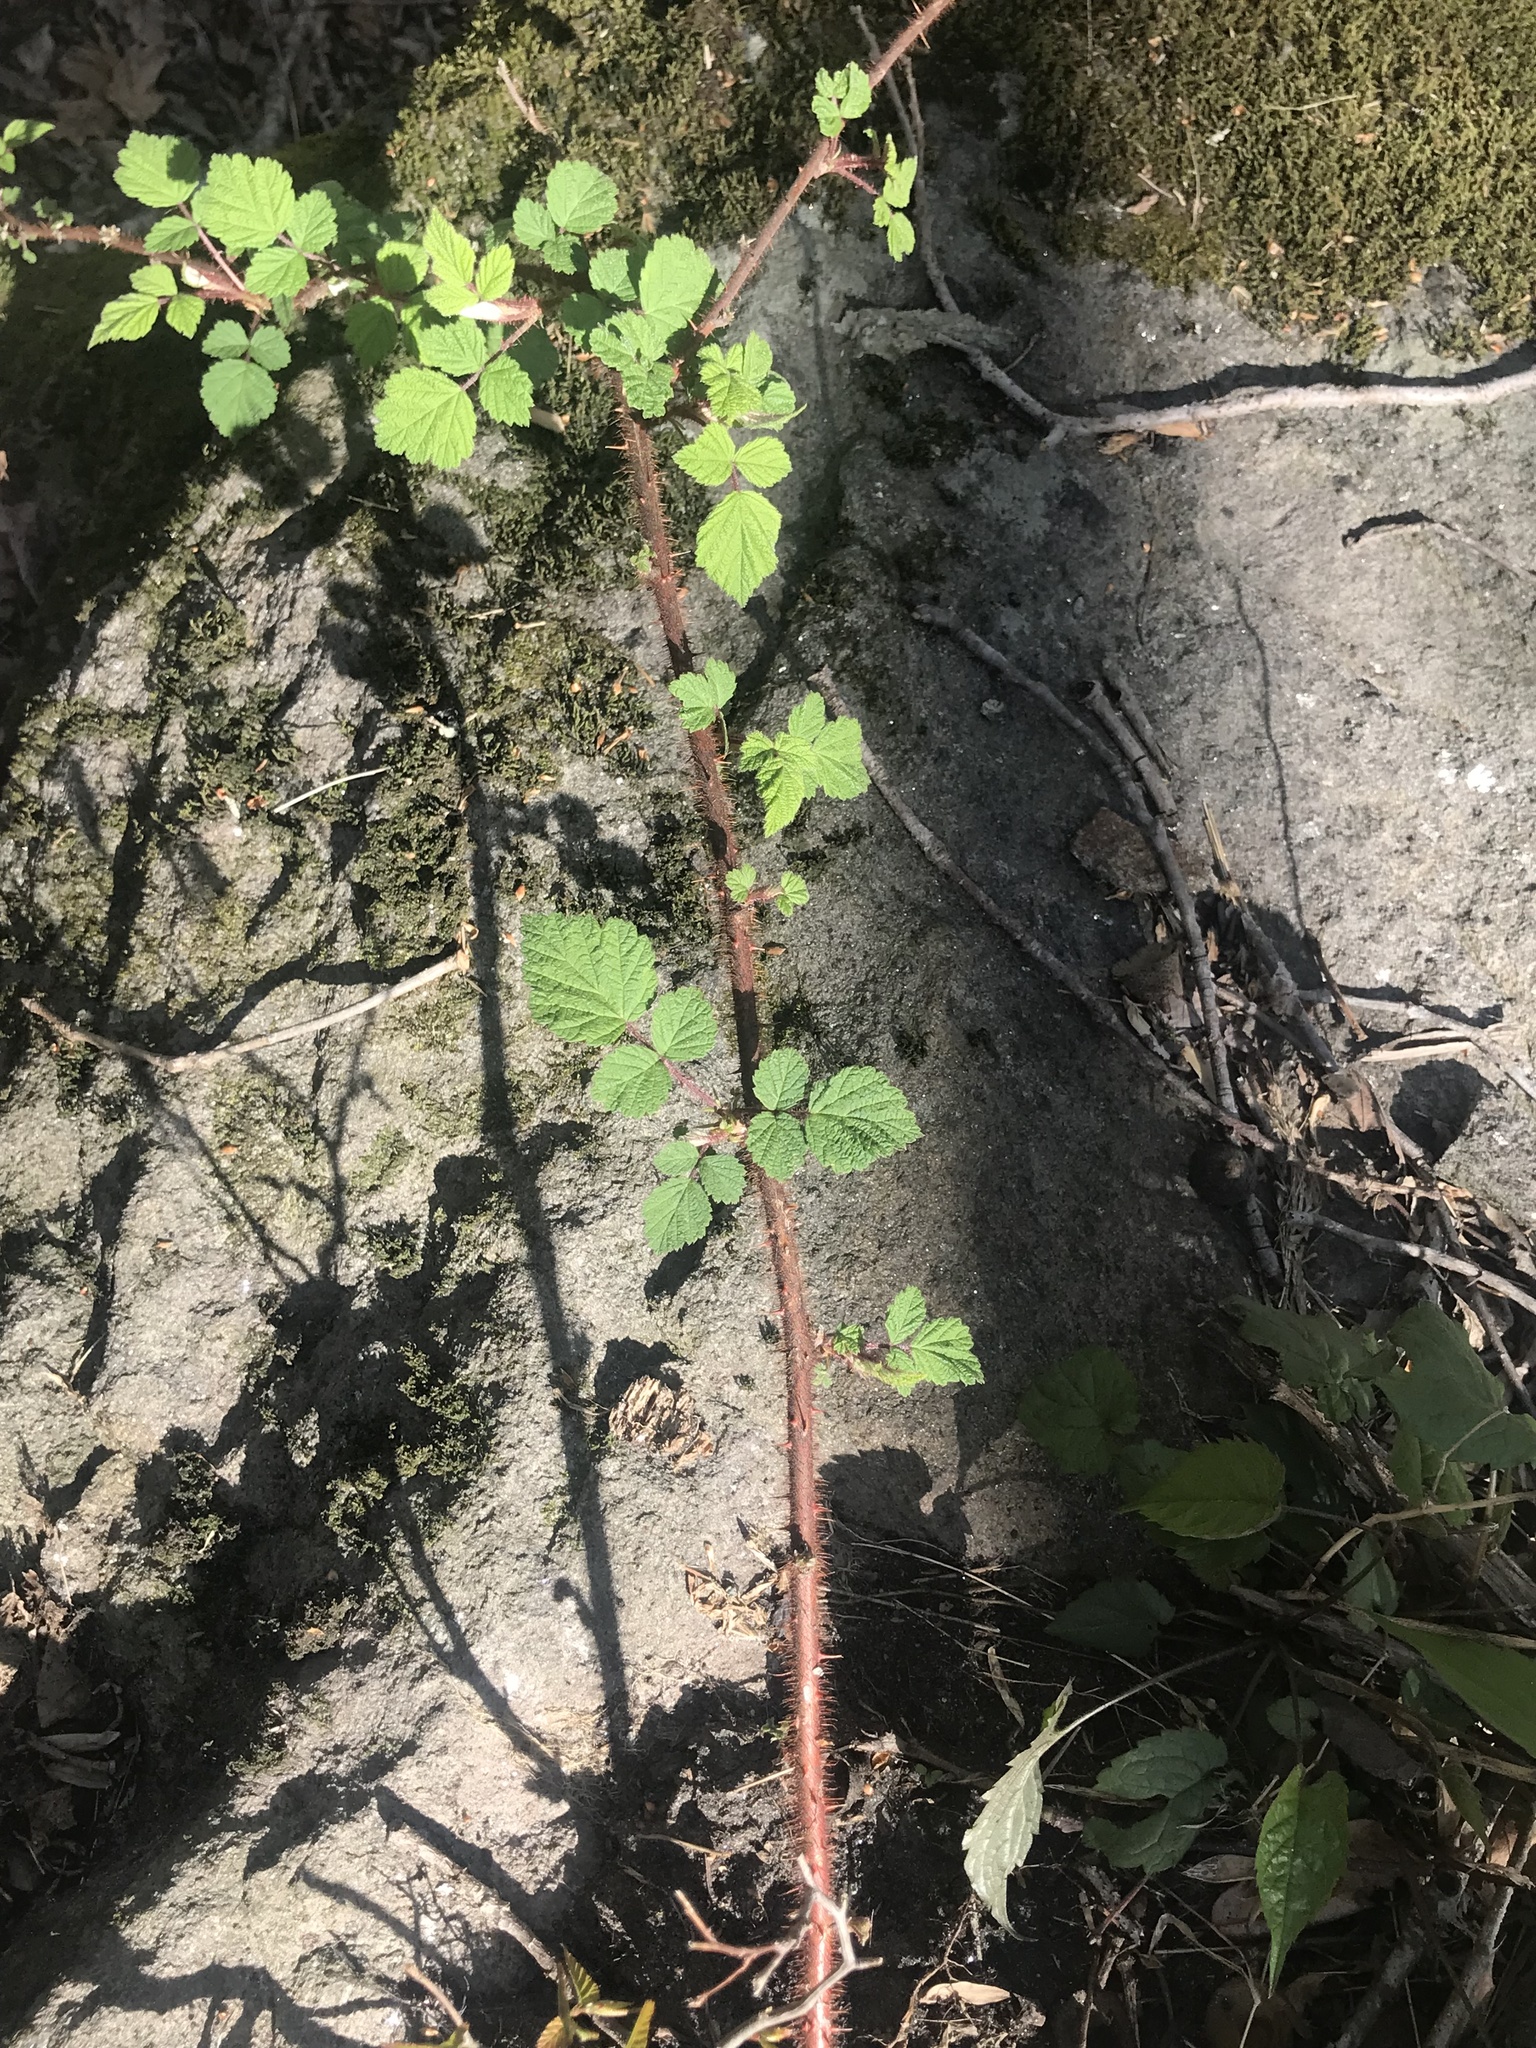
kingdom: Plantae
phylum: Tracheophyta
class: Magnoliopsida
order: Rosales
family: Rosaceae
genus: Rubus
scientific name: Rubus phoenicolasius
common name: Japanese wineberry
